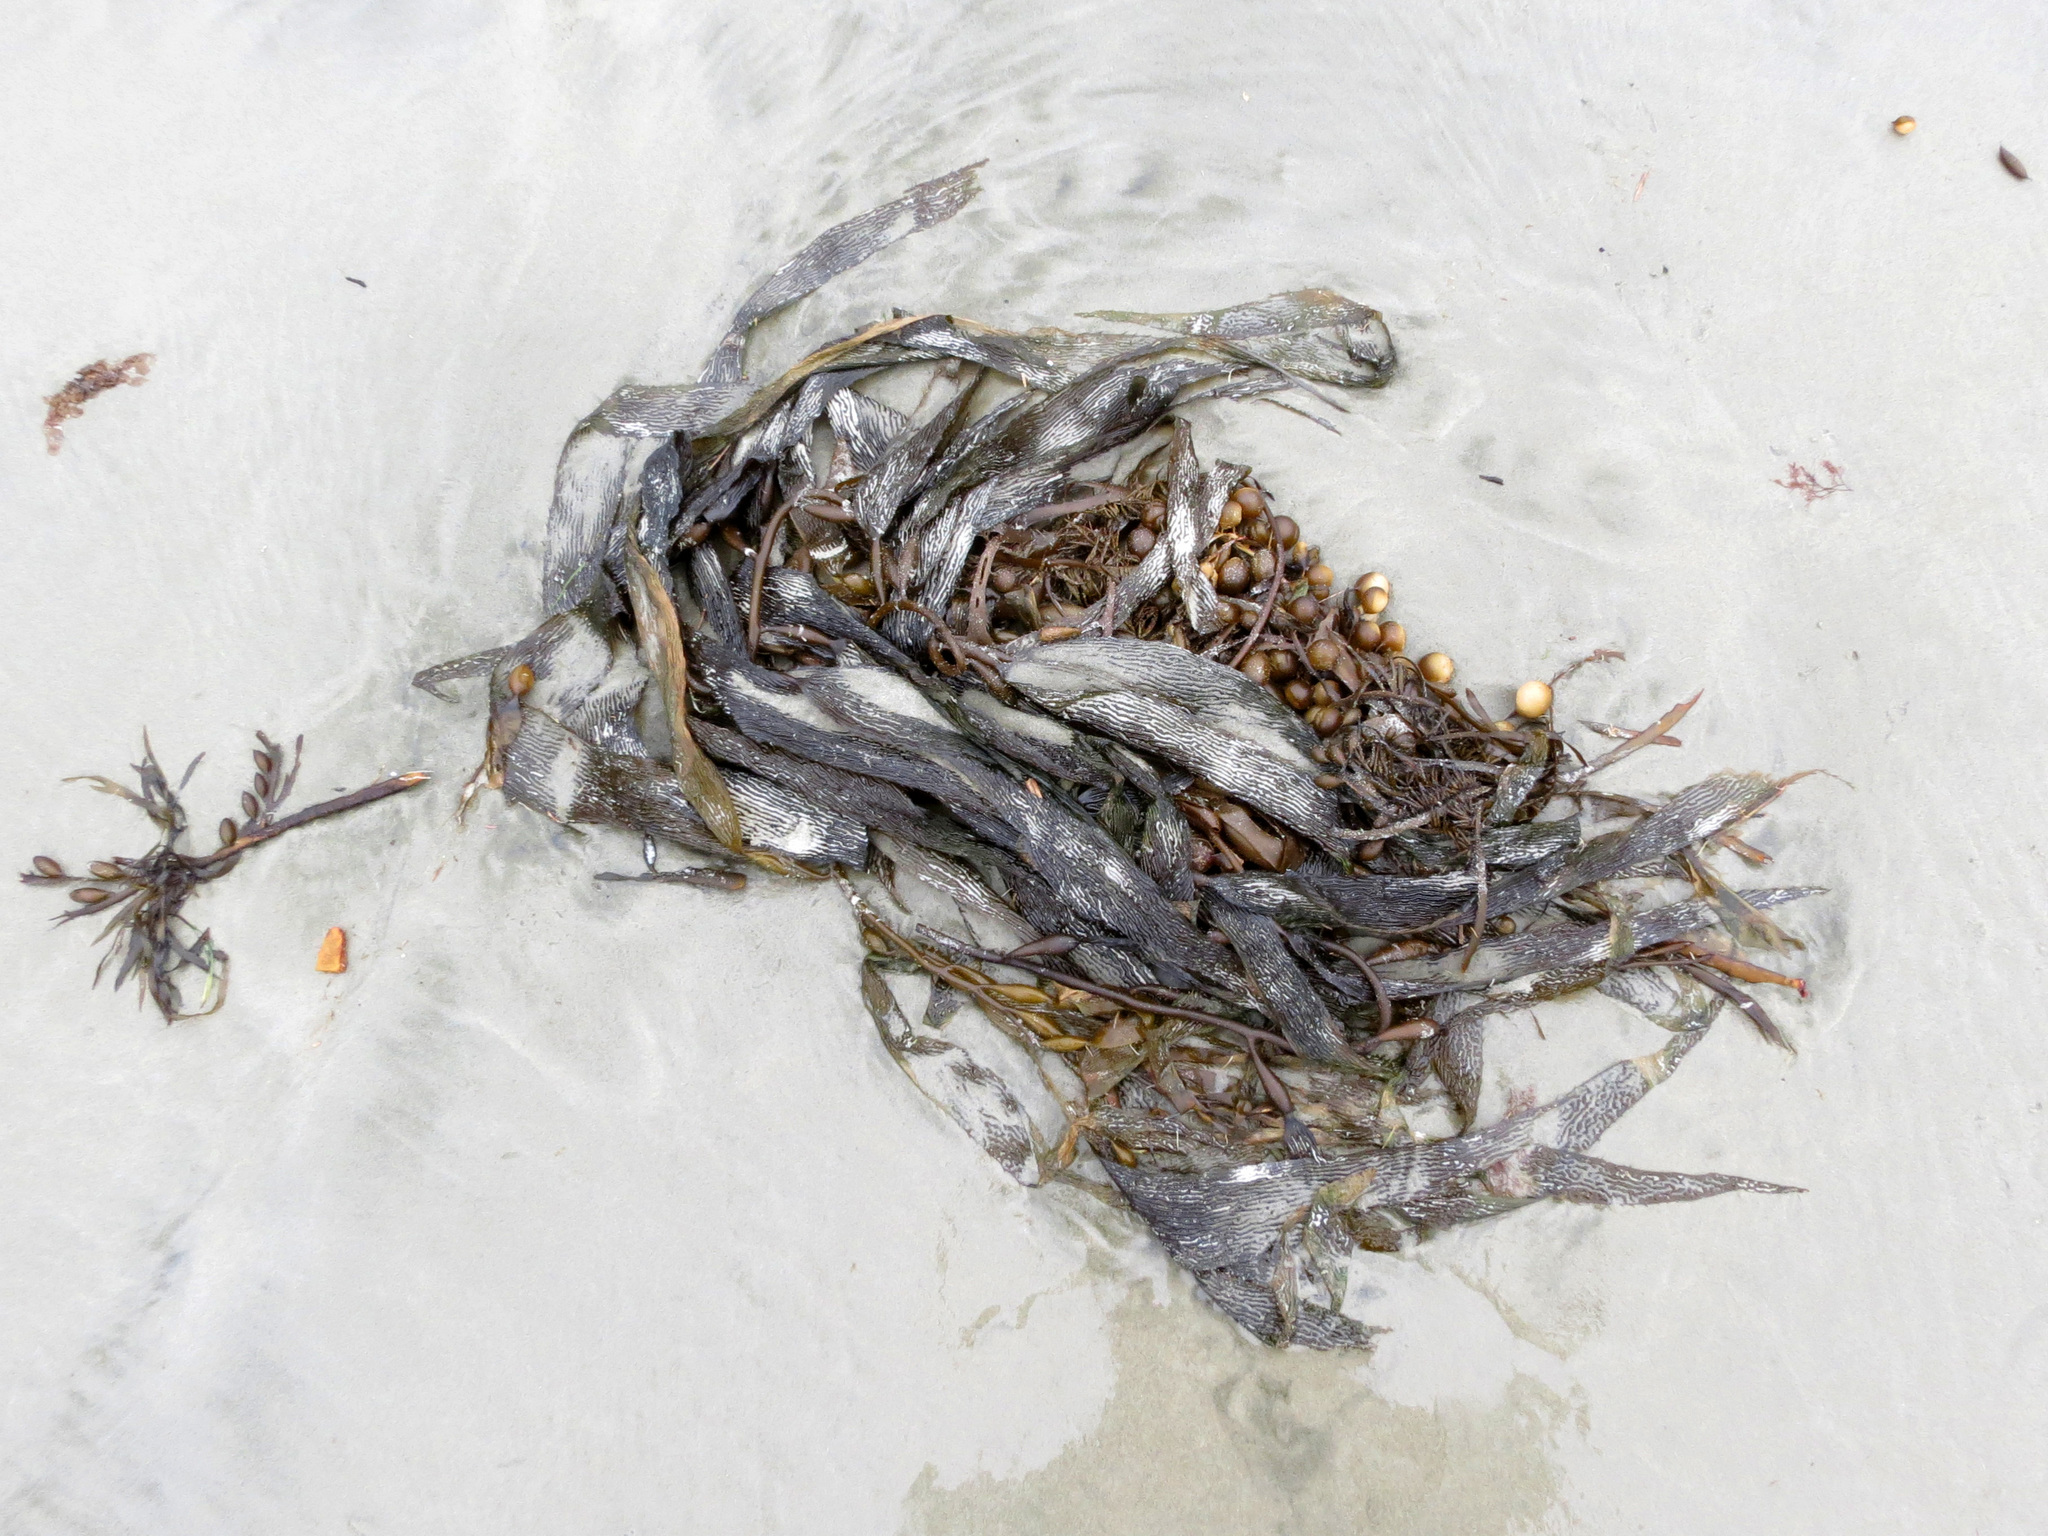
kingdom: Chromista
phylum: Ochrophyta
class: Phaeophyceae
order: Fucales
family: Seirococcaceae
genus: Marginariella
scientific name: Marginariella urvilliana
